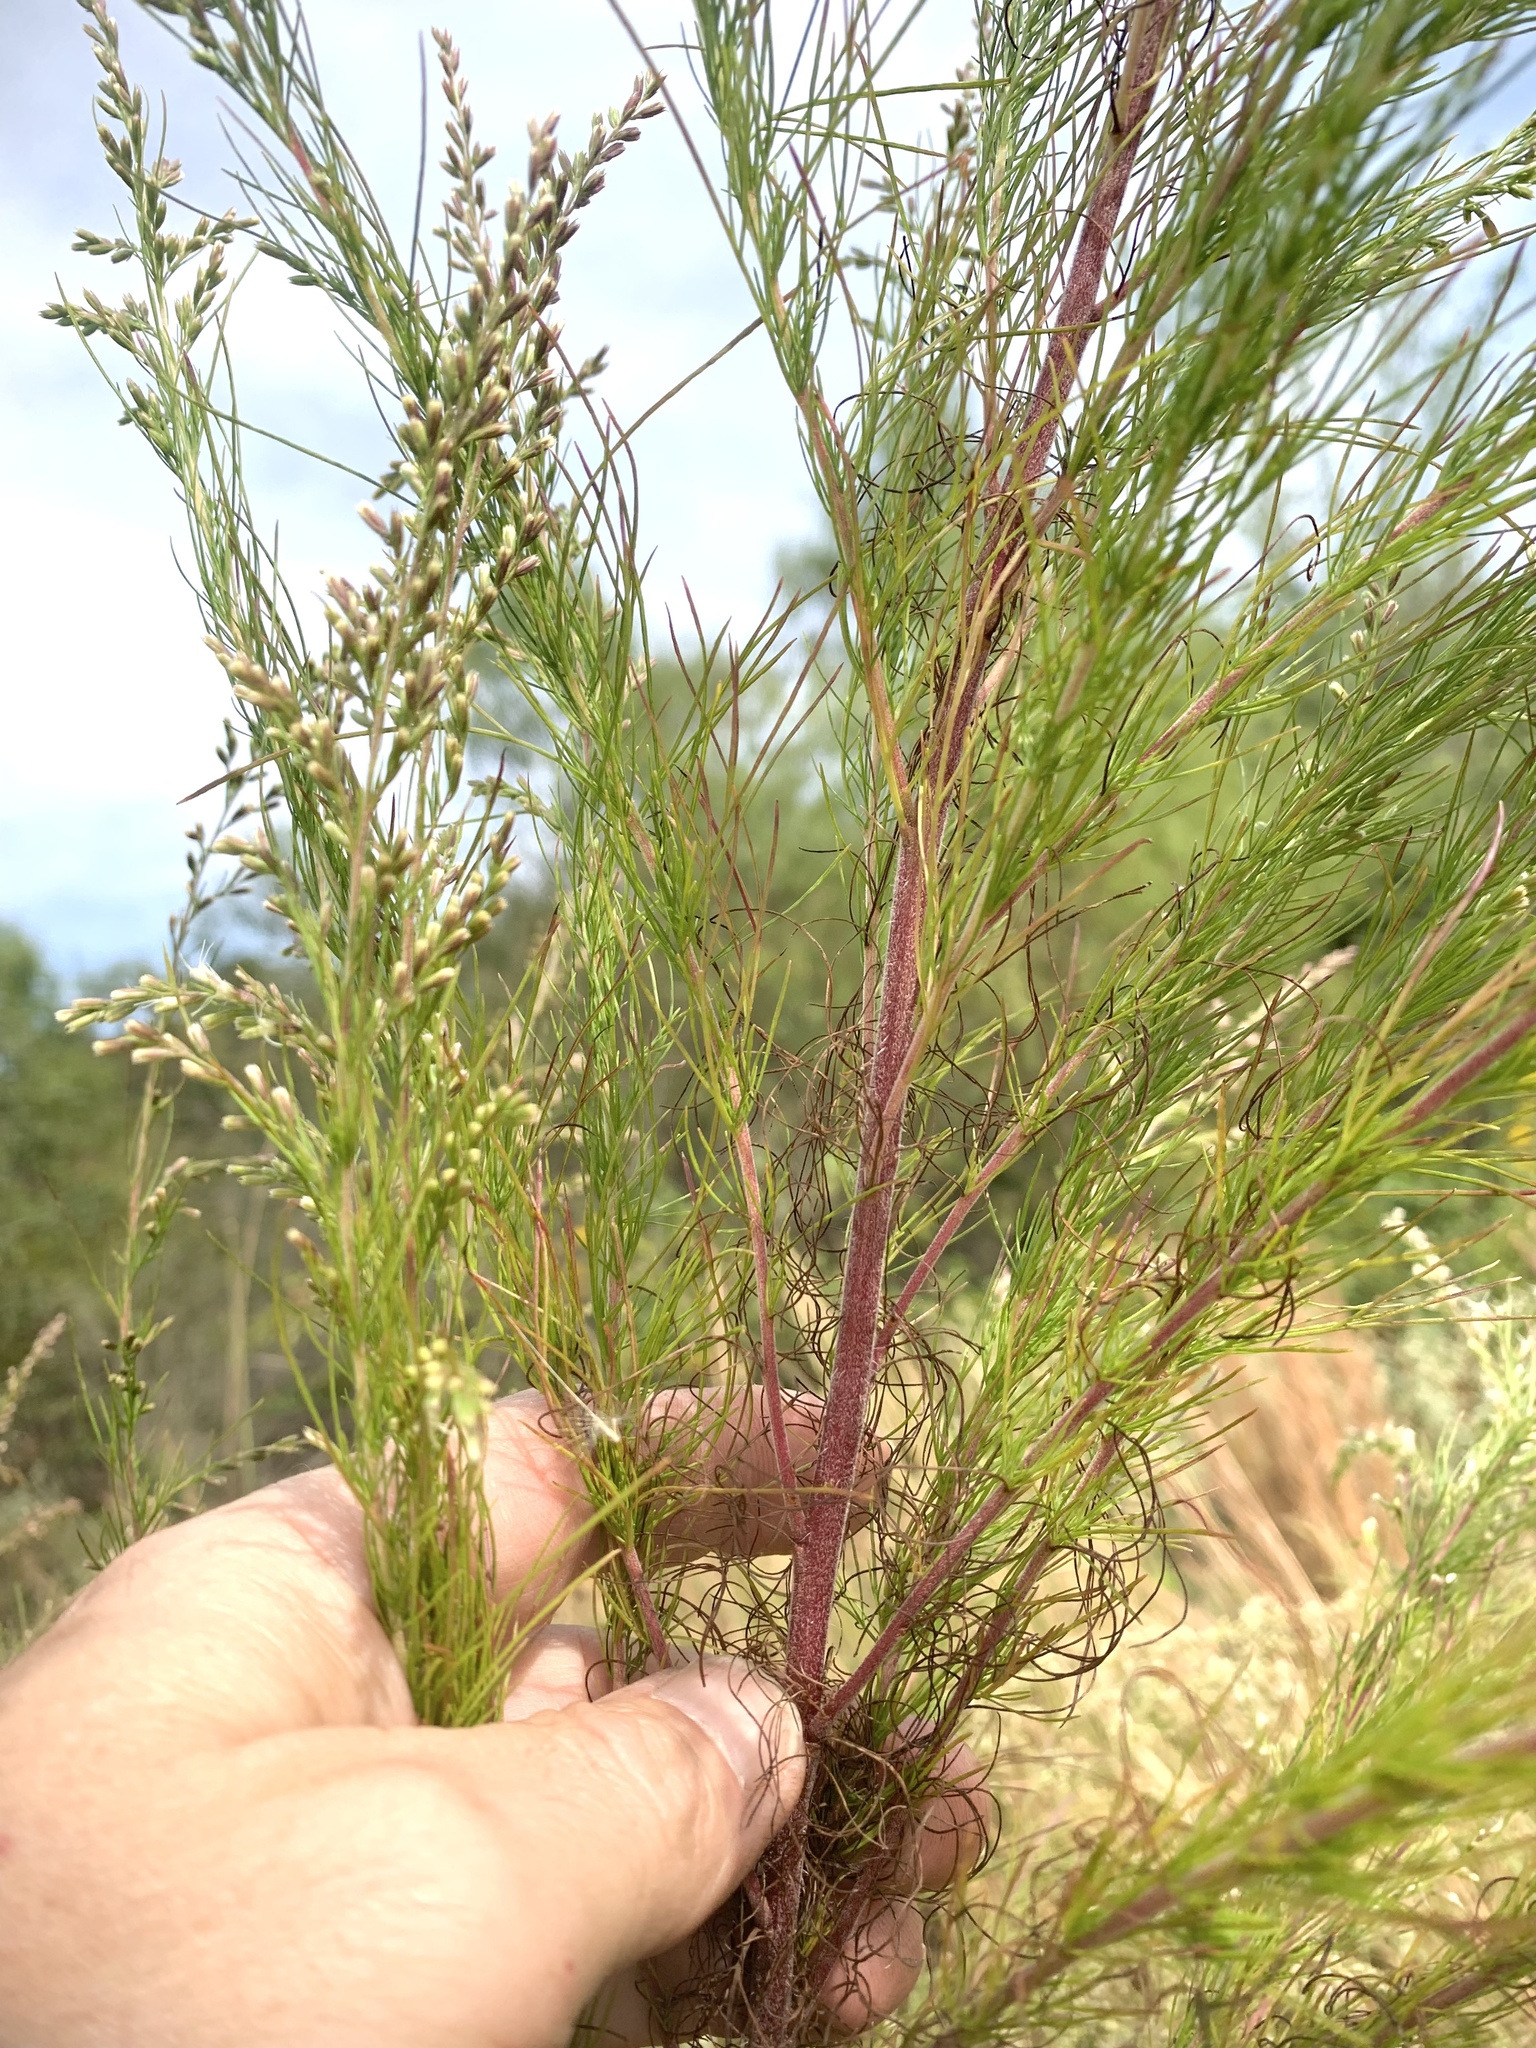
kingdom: Plantae
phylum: Tracheophyta
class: Magnoliopsida
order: Asterales
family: Asteraceae
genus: Eupatorium
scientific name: Eupatorium capillifolium
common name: Dog-fennel
